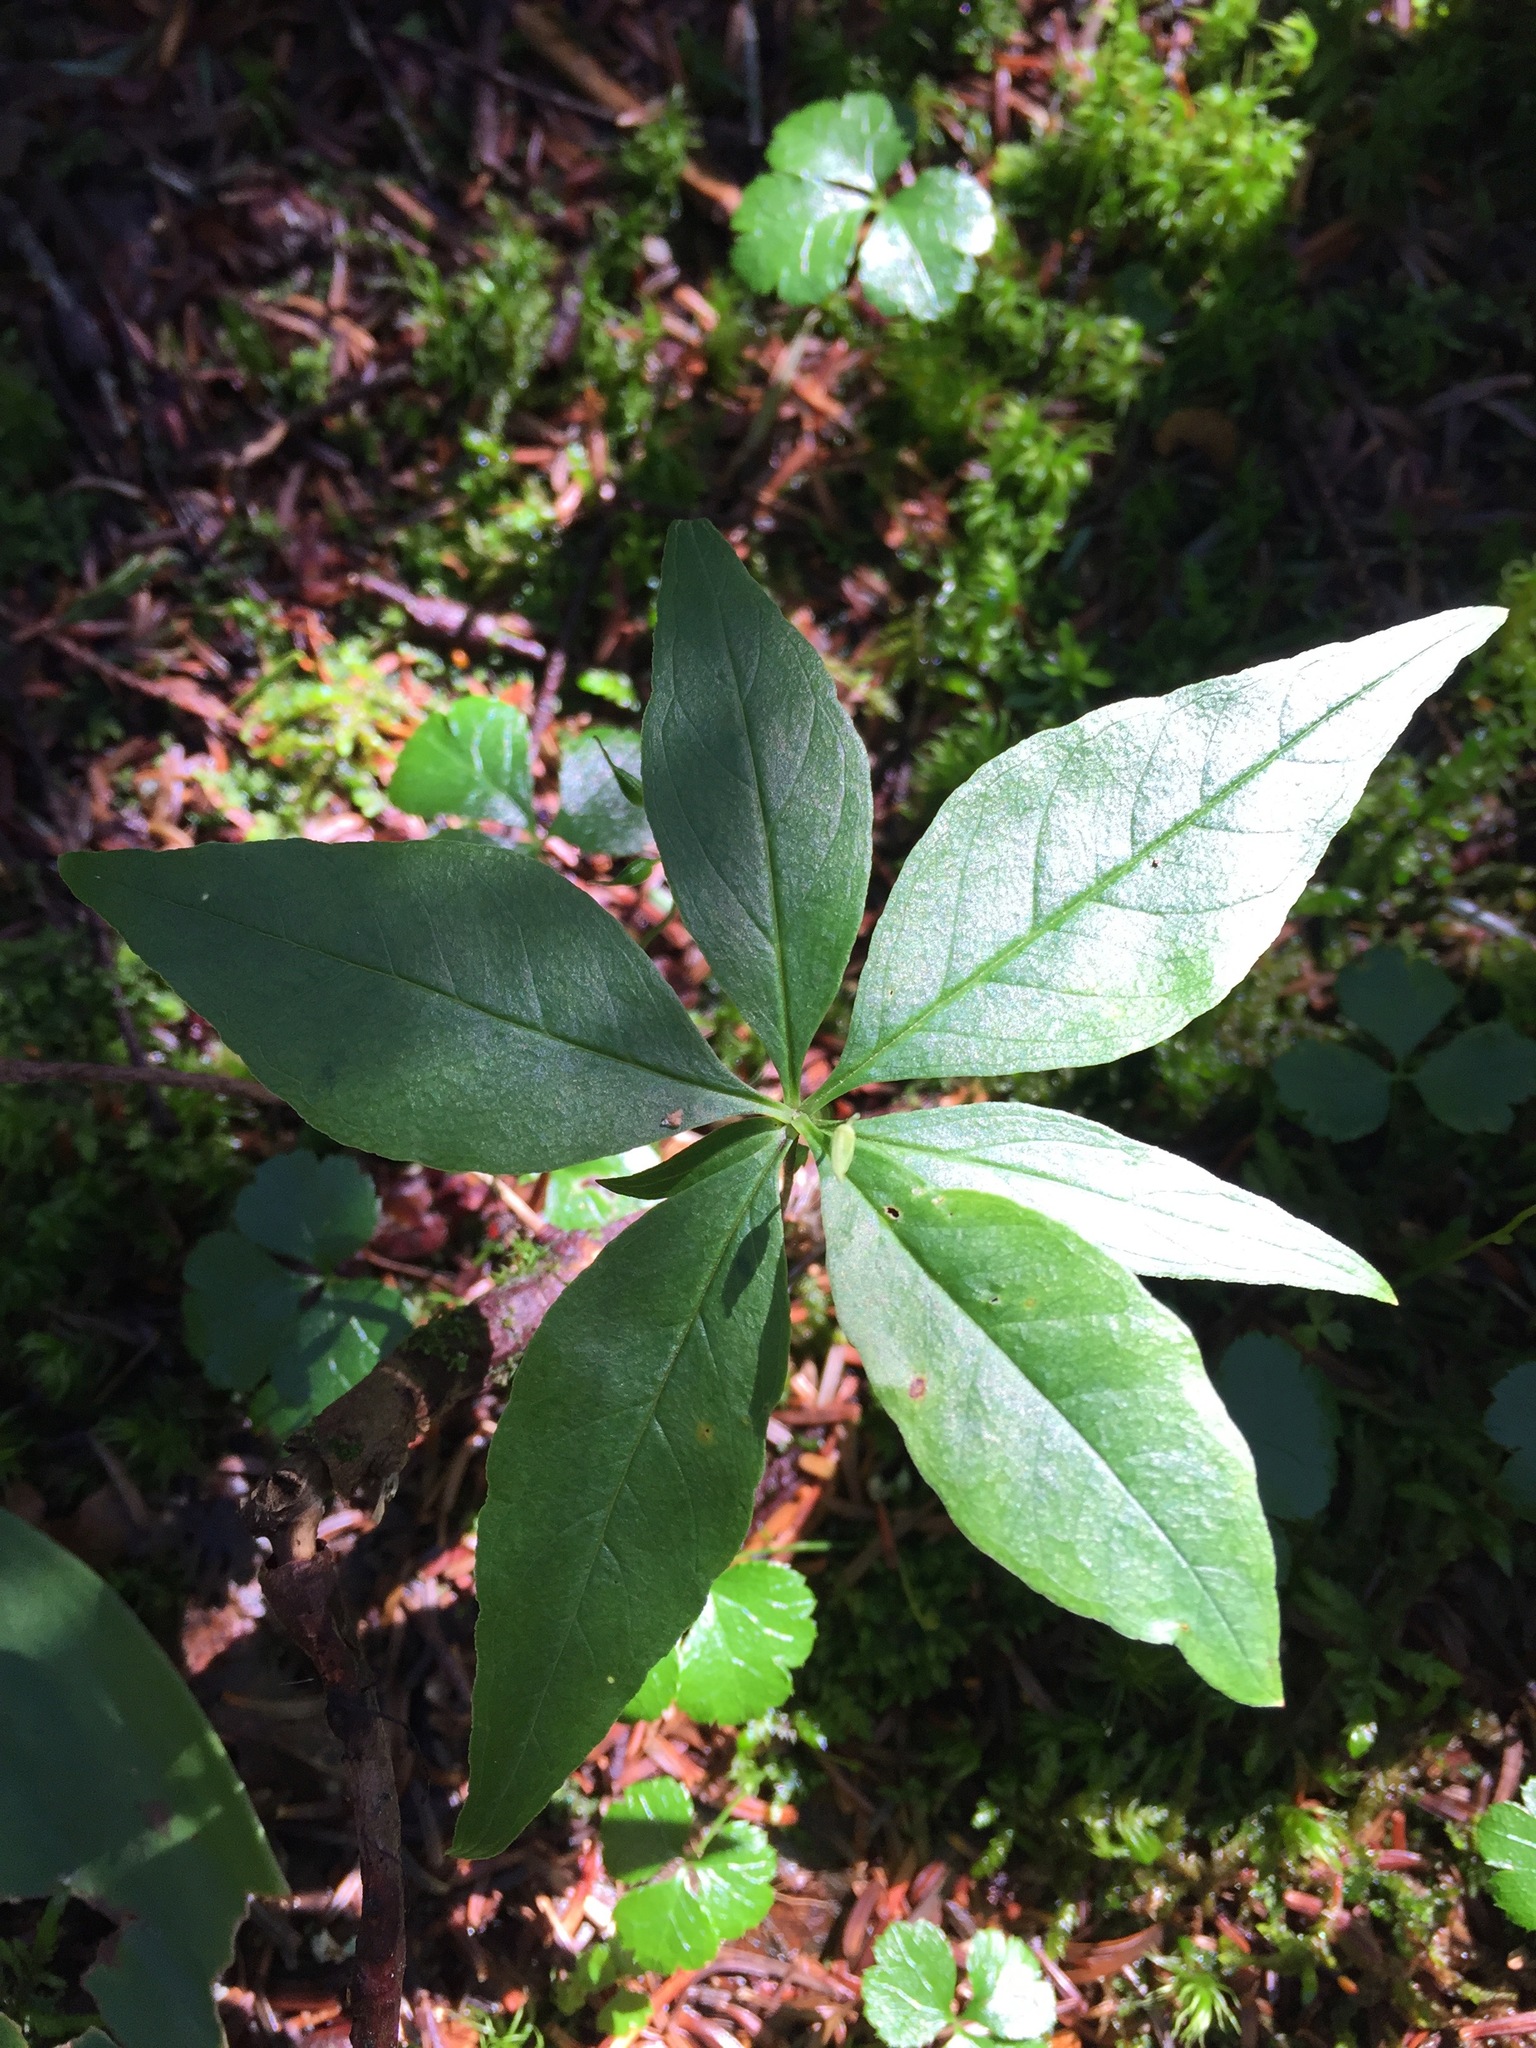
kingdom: Plantae
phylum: Tracheophyta
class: Magnoliopsida
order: Ericales
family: Primulaceae
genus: Lysimachia
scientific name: Lysimachia borealis
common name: American starflower
